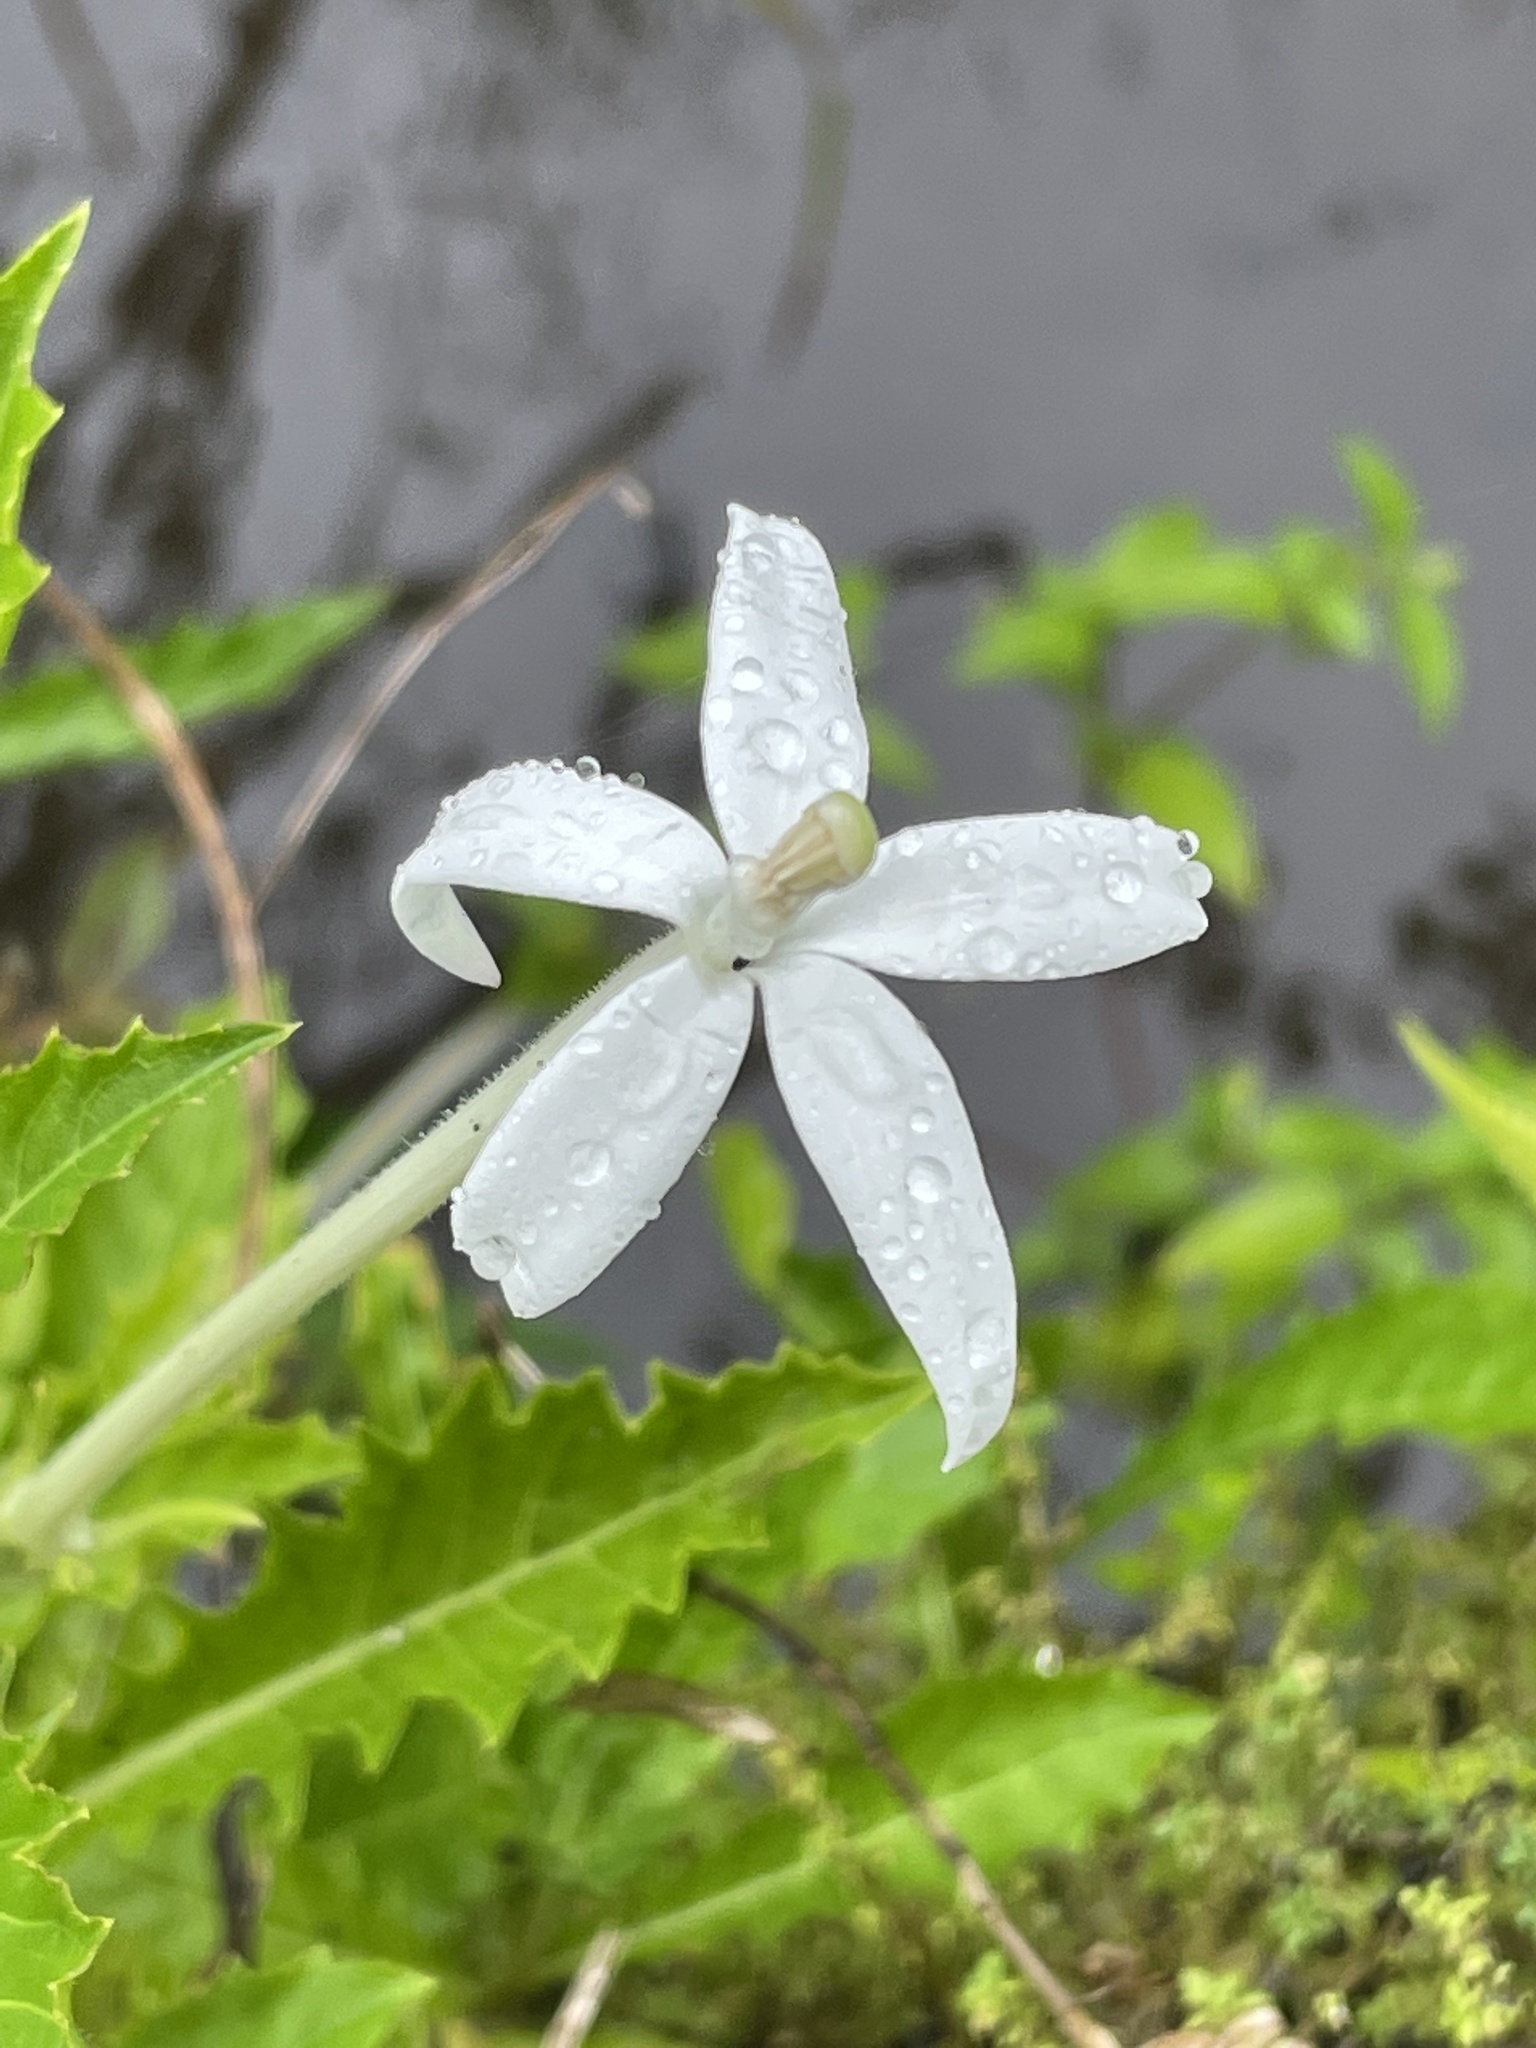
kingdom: Plantae
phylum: Tracheophyta
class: Magnoliopsida
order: Asterales
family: Campanulaceae
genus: Hippobroma
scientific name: Hippobroma longiflora
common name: Madamfate
